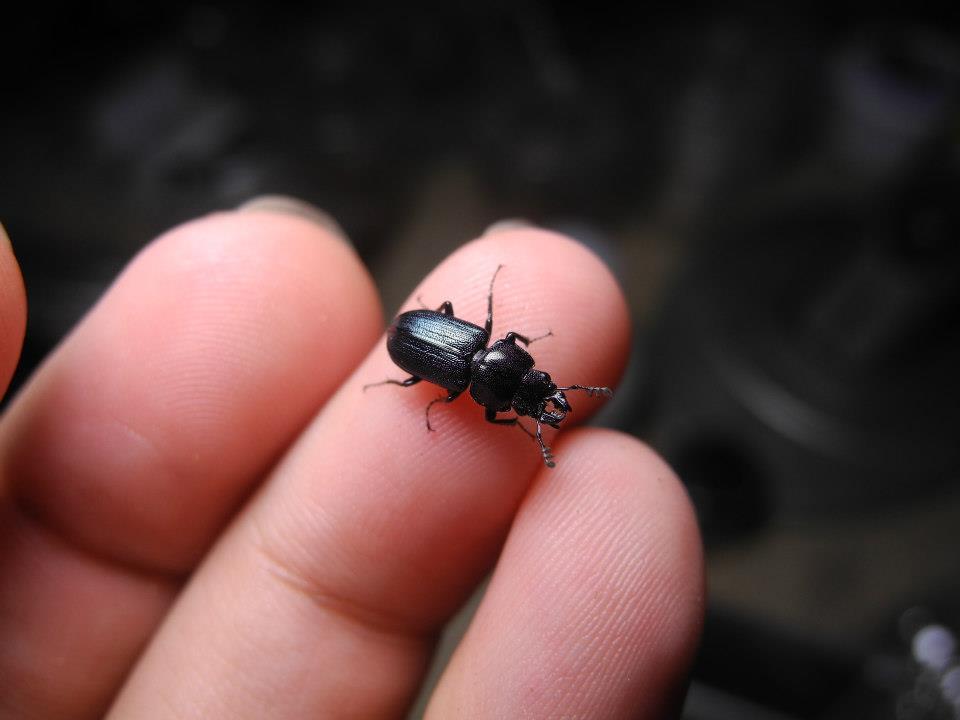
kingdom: Animalia
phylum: Arthropoda
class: Insecta
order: Coleoptera
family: Lucanidae
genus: Platycerus
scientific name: Platycerus quercus
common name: Oak stag beetle
